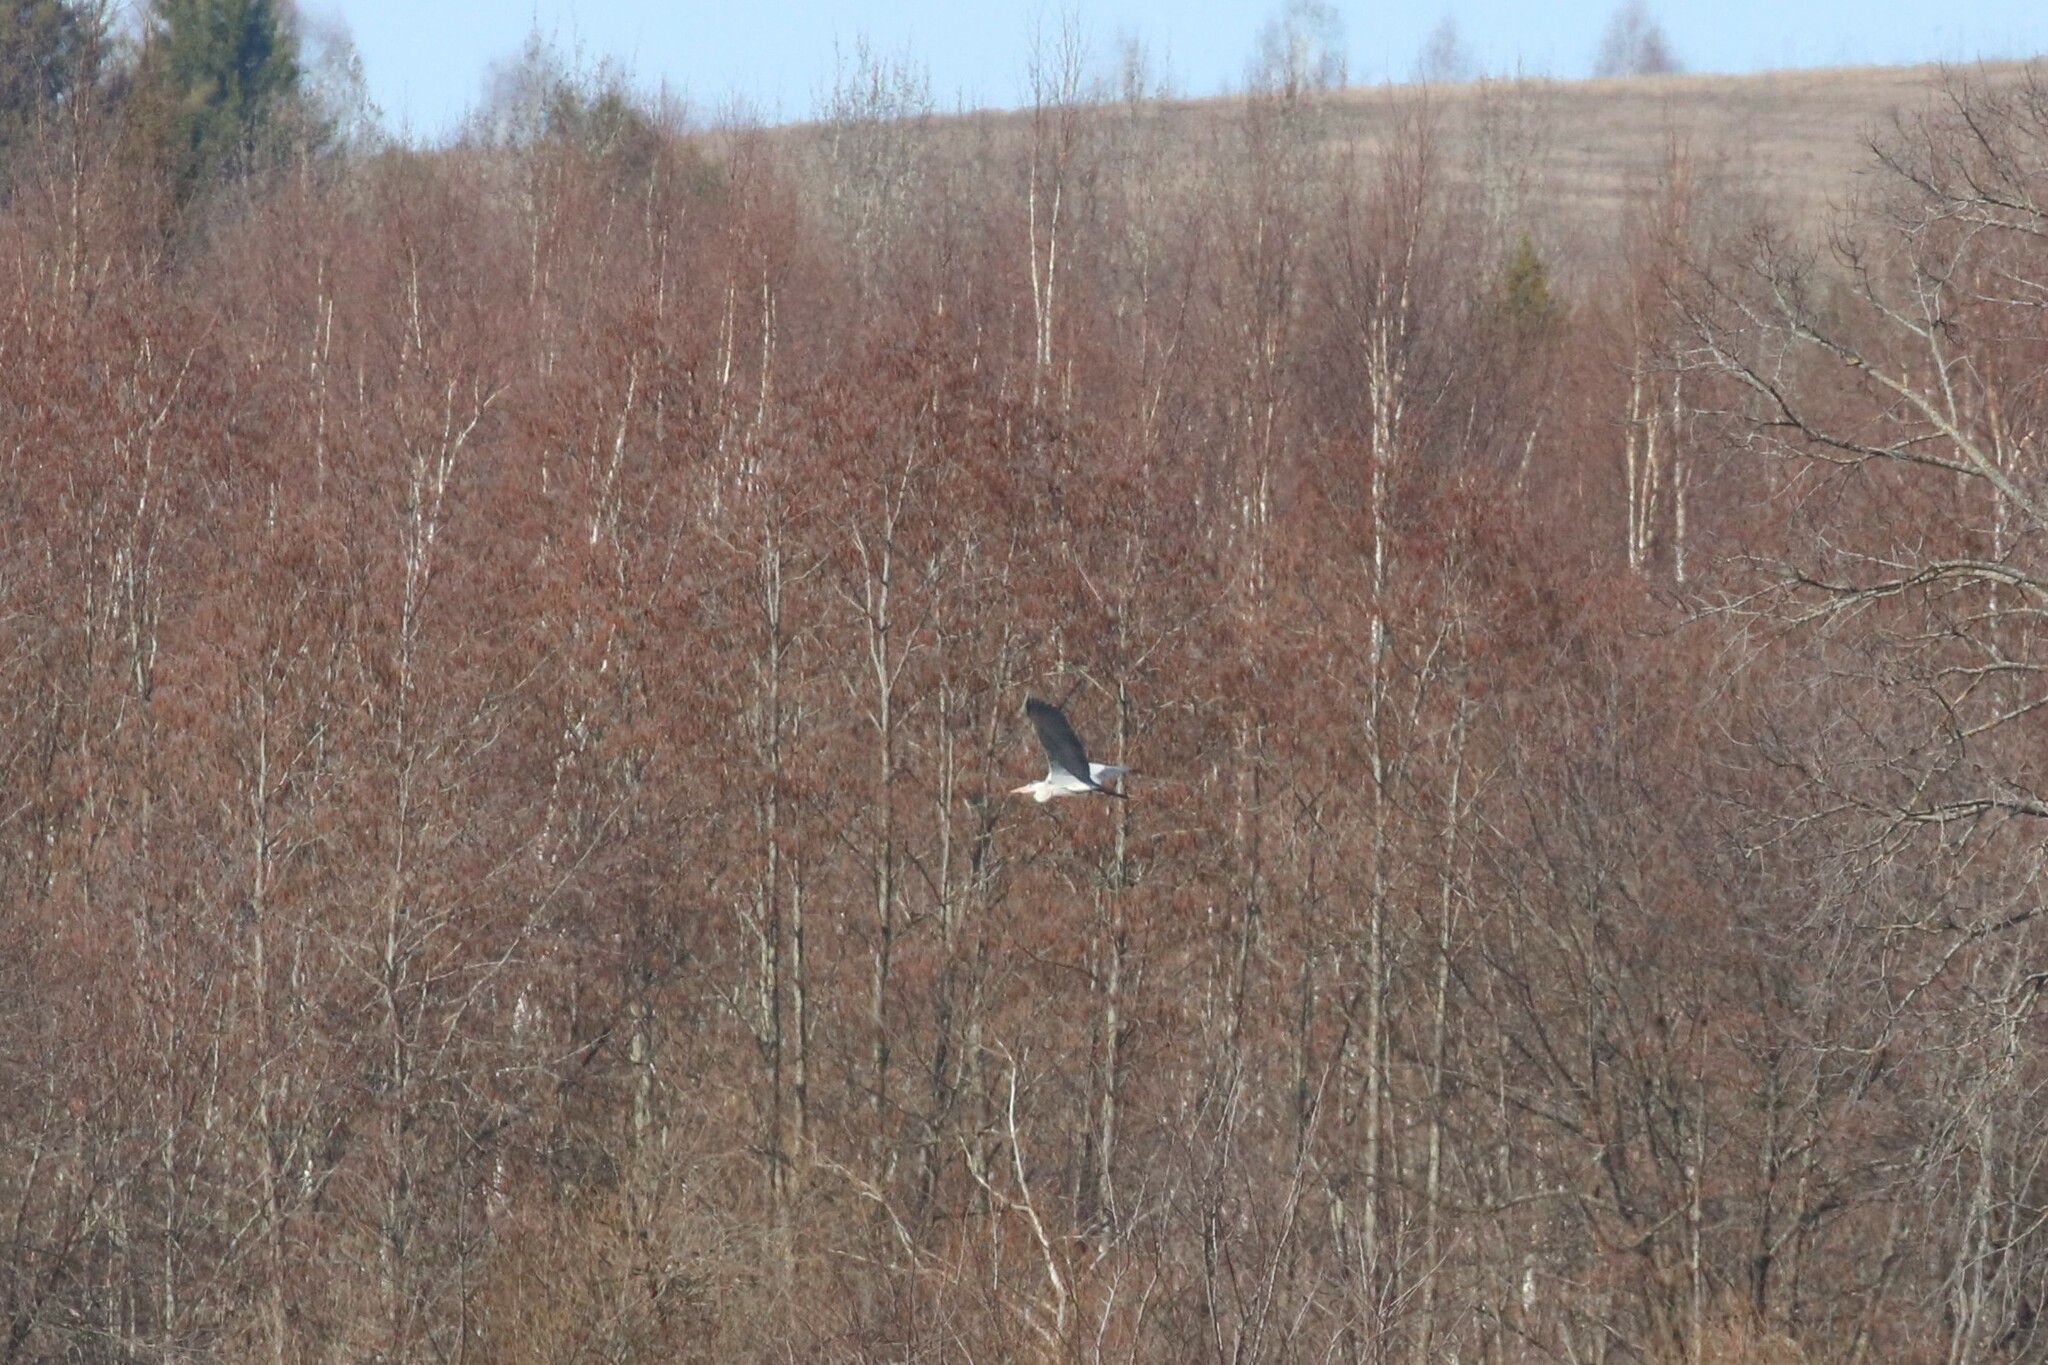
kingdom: Animalia
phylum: Chordata
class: Aves
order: Pelecaniformes
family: Ardeidae
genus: Ardea
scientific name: Ardea cinerea
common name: Grey heron
